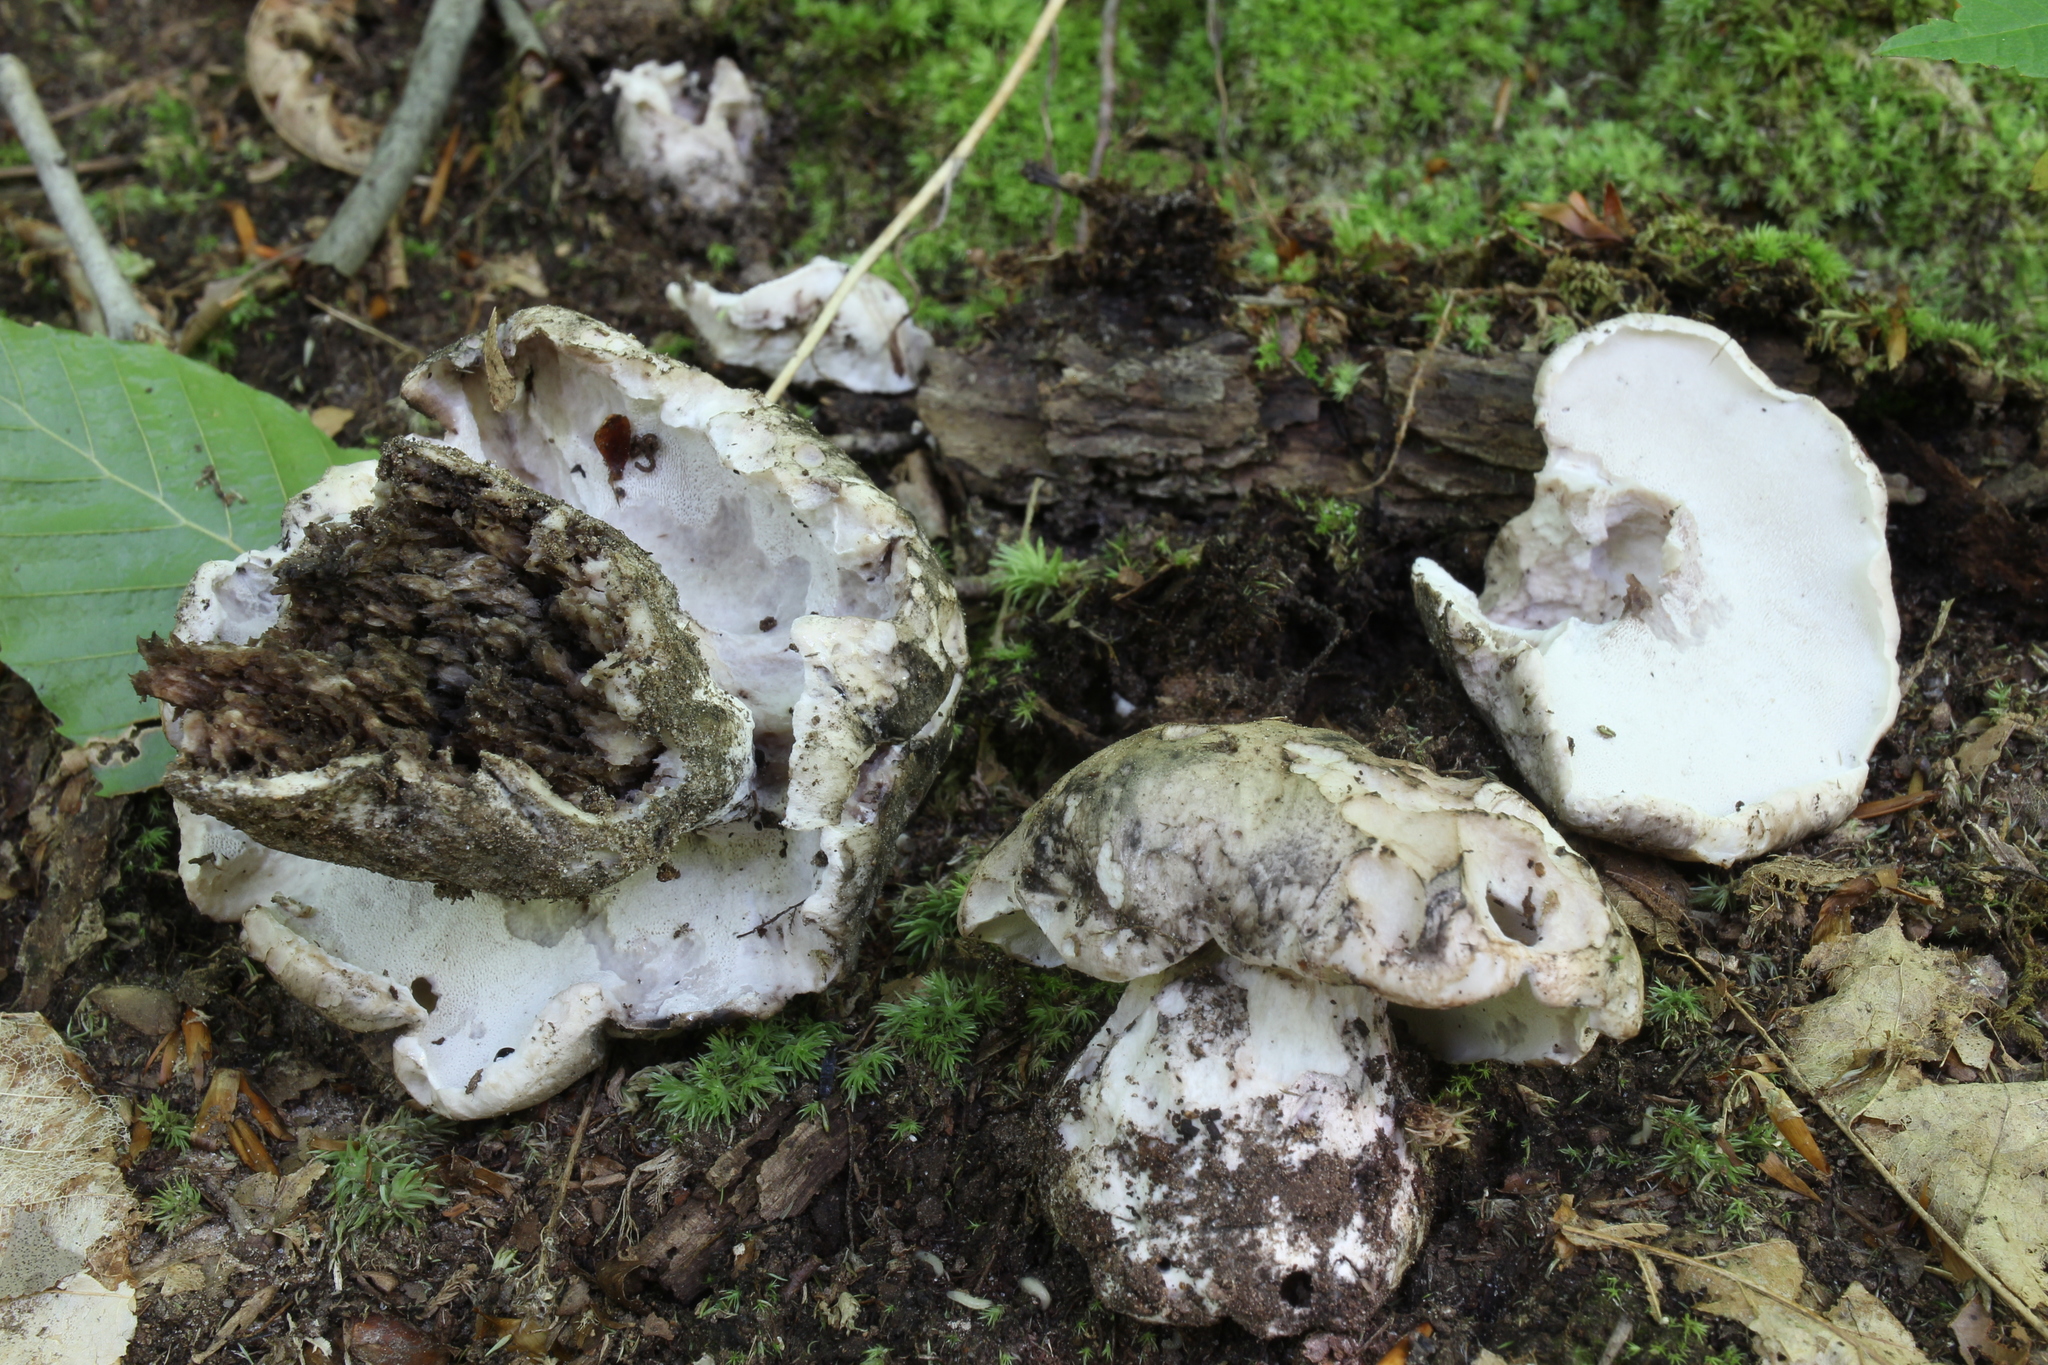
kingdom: Fungi
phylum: Basidiomycota
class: Agaricomycetes
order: Thelephorales
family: Bankeraceae
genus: Boletopsis
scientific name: Boletopsis grisea
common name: Grey falsebolete
